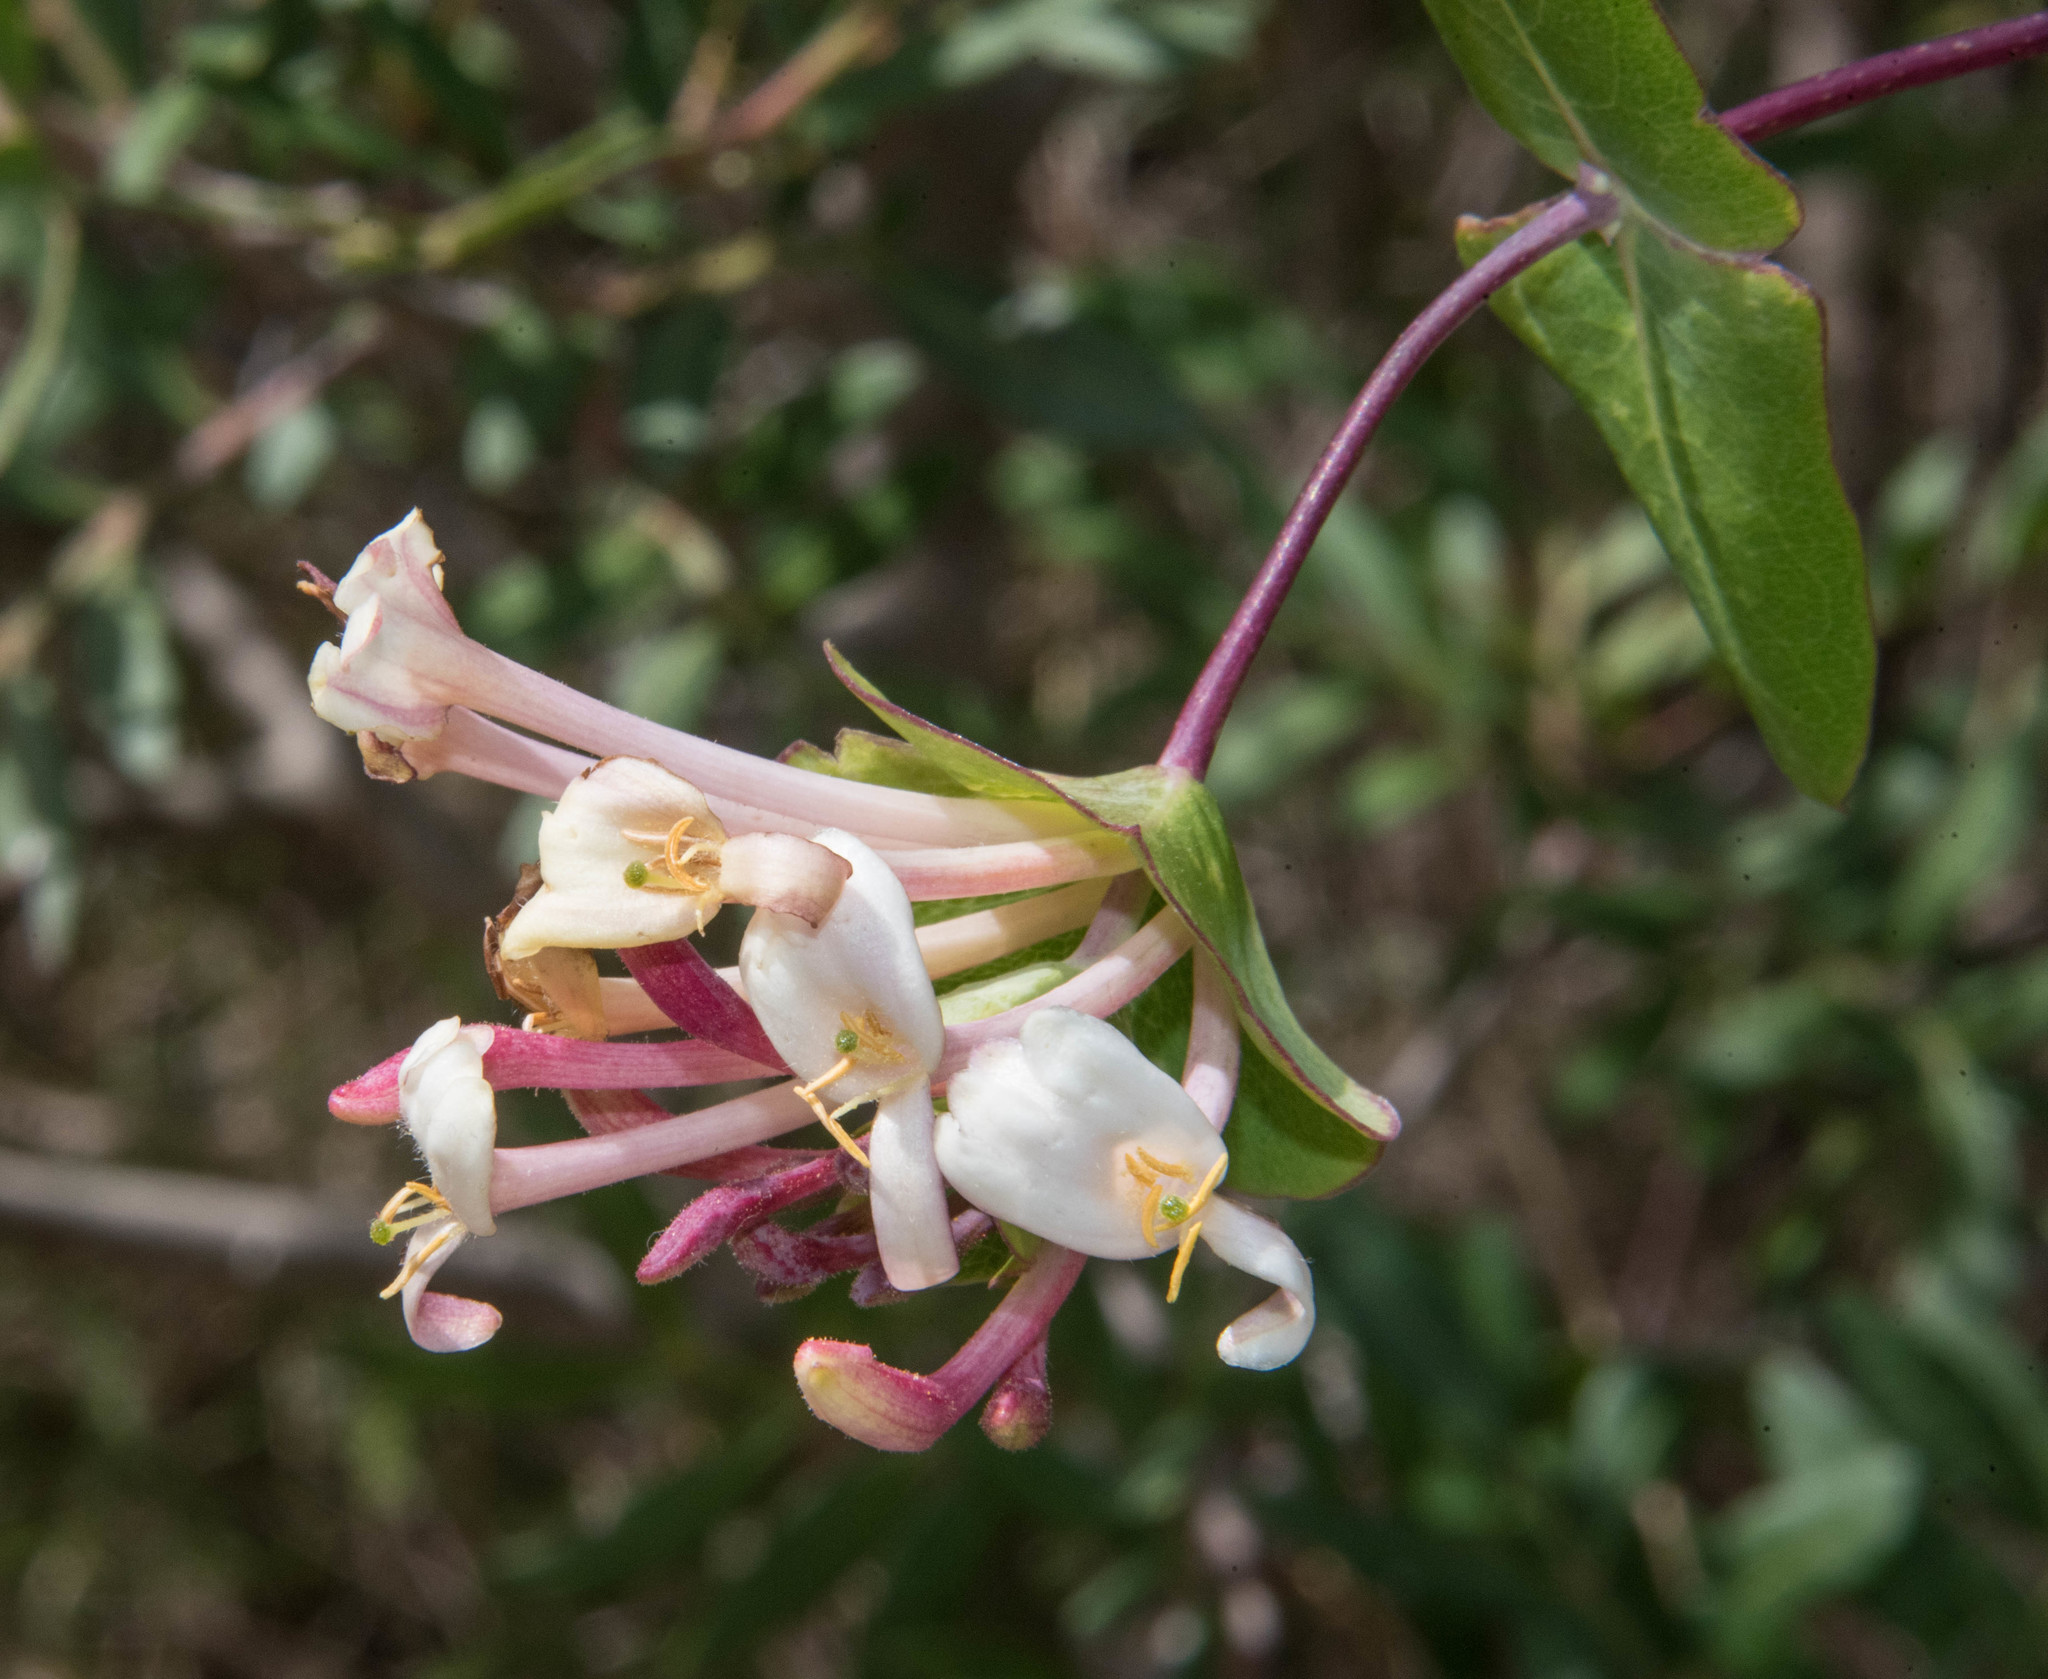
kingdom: Plantae
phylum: Tracheophyta
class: Magnoliopsida
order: Dipsacales
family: Caprifoliaceae
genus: Lonicera
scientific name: Lonicera implexa
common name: Minorca honeysuckle
